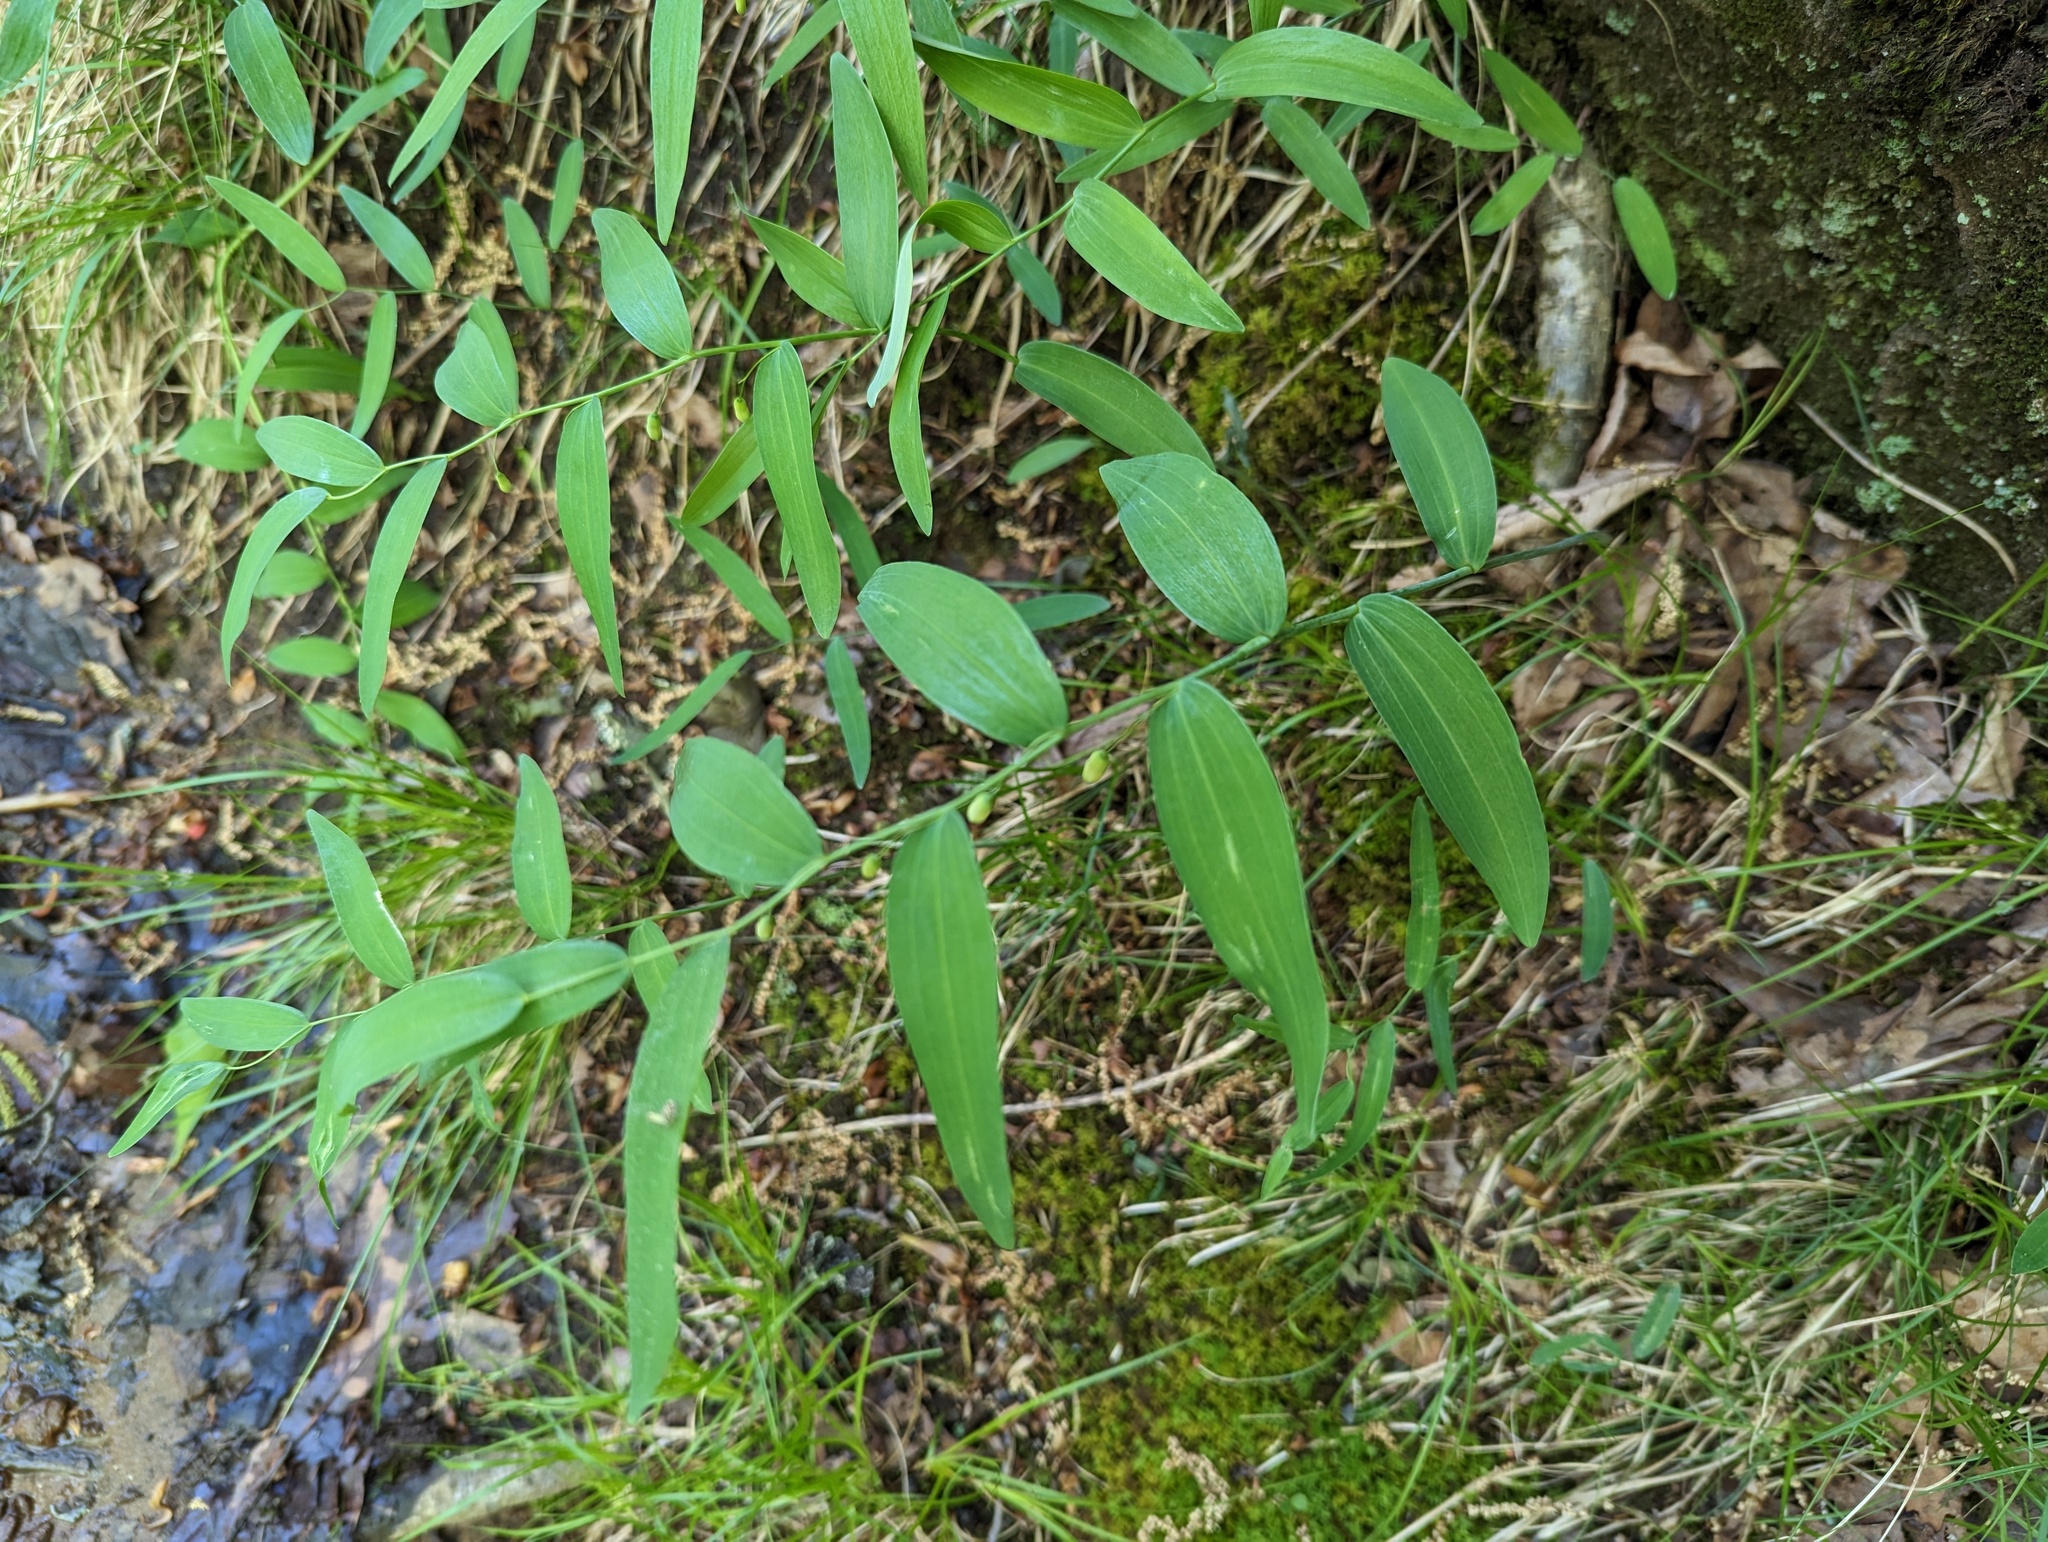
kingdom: Plantae
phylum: Tracheophyta
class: Liliopsida
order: Asparagales
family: Asparagaceae
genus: Polygonatum
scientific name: Polygonatum biflorum
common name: American solomon's-seal
